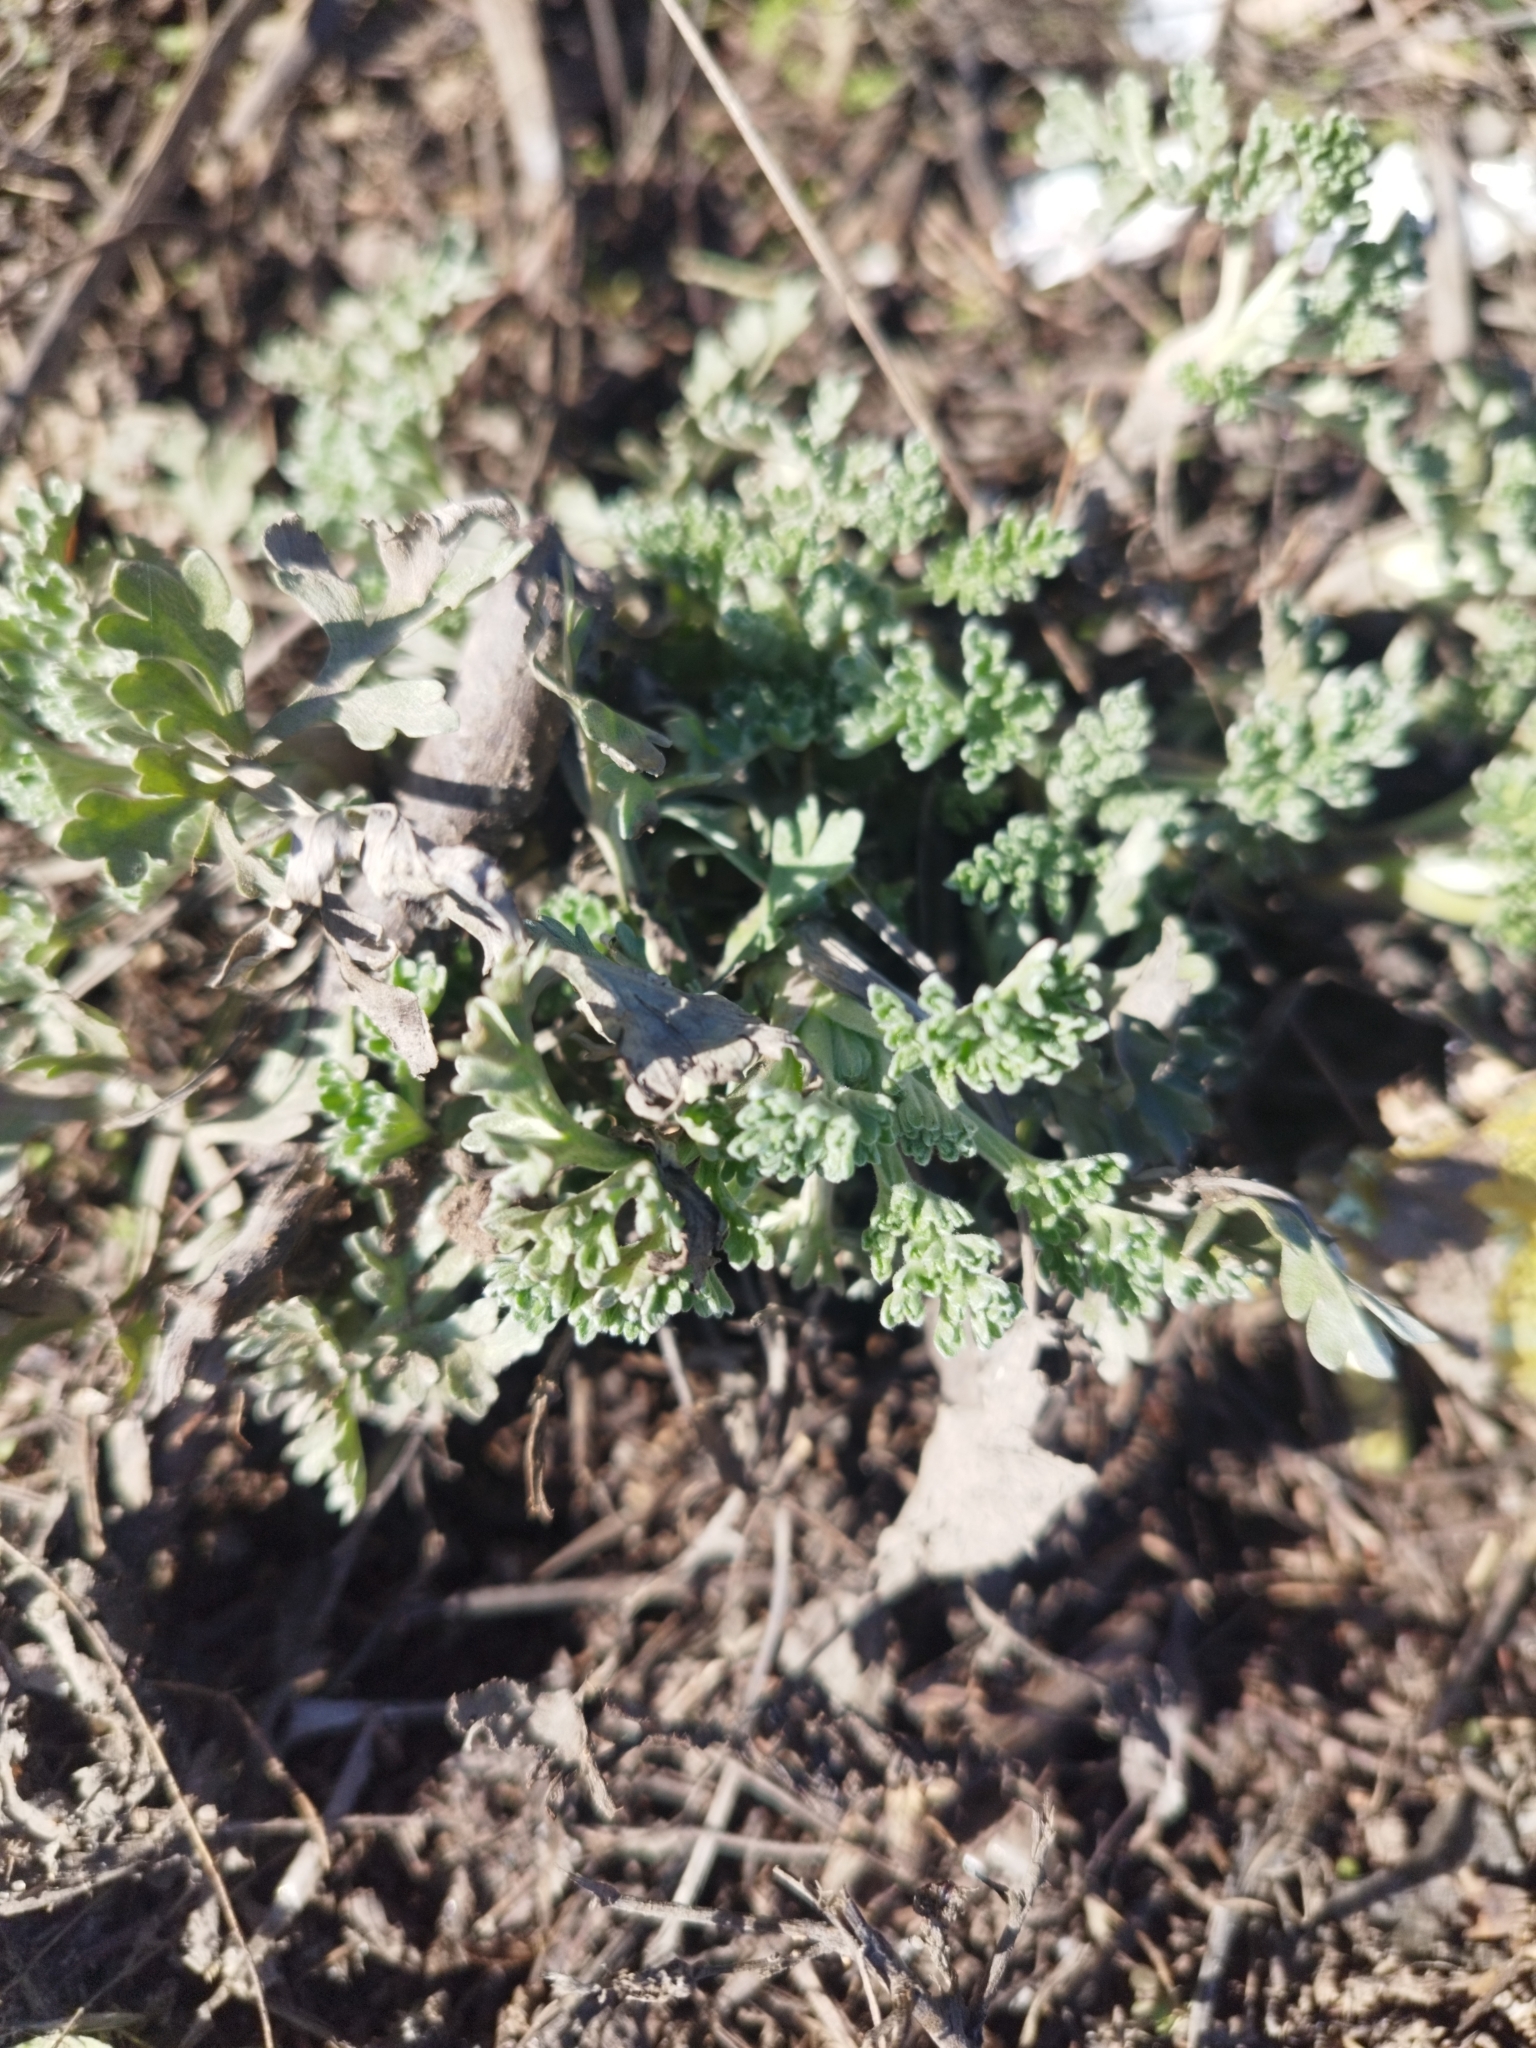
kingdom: Plantae
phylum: Tracheophyta
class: Magnoliopsida
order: Asterales
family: Asteraceae
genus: Artemisia
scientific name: Artemisia absinthium
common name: Wormwood
